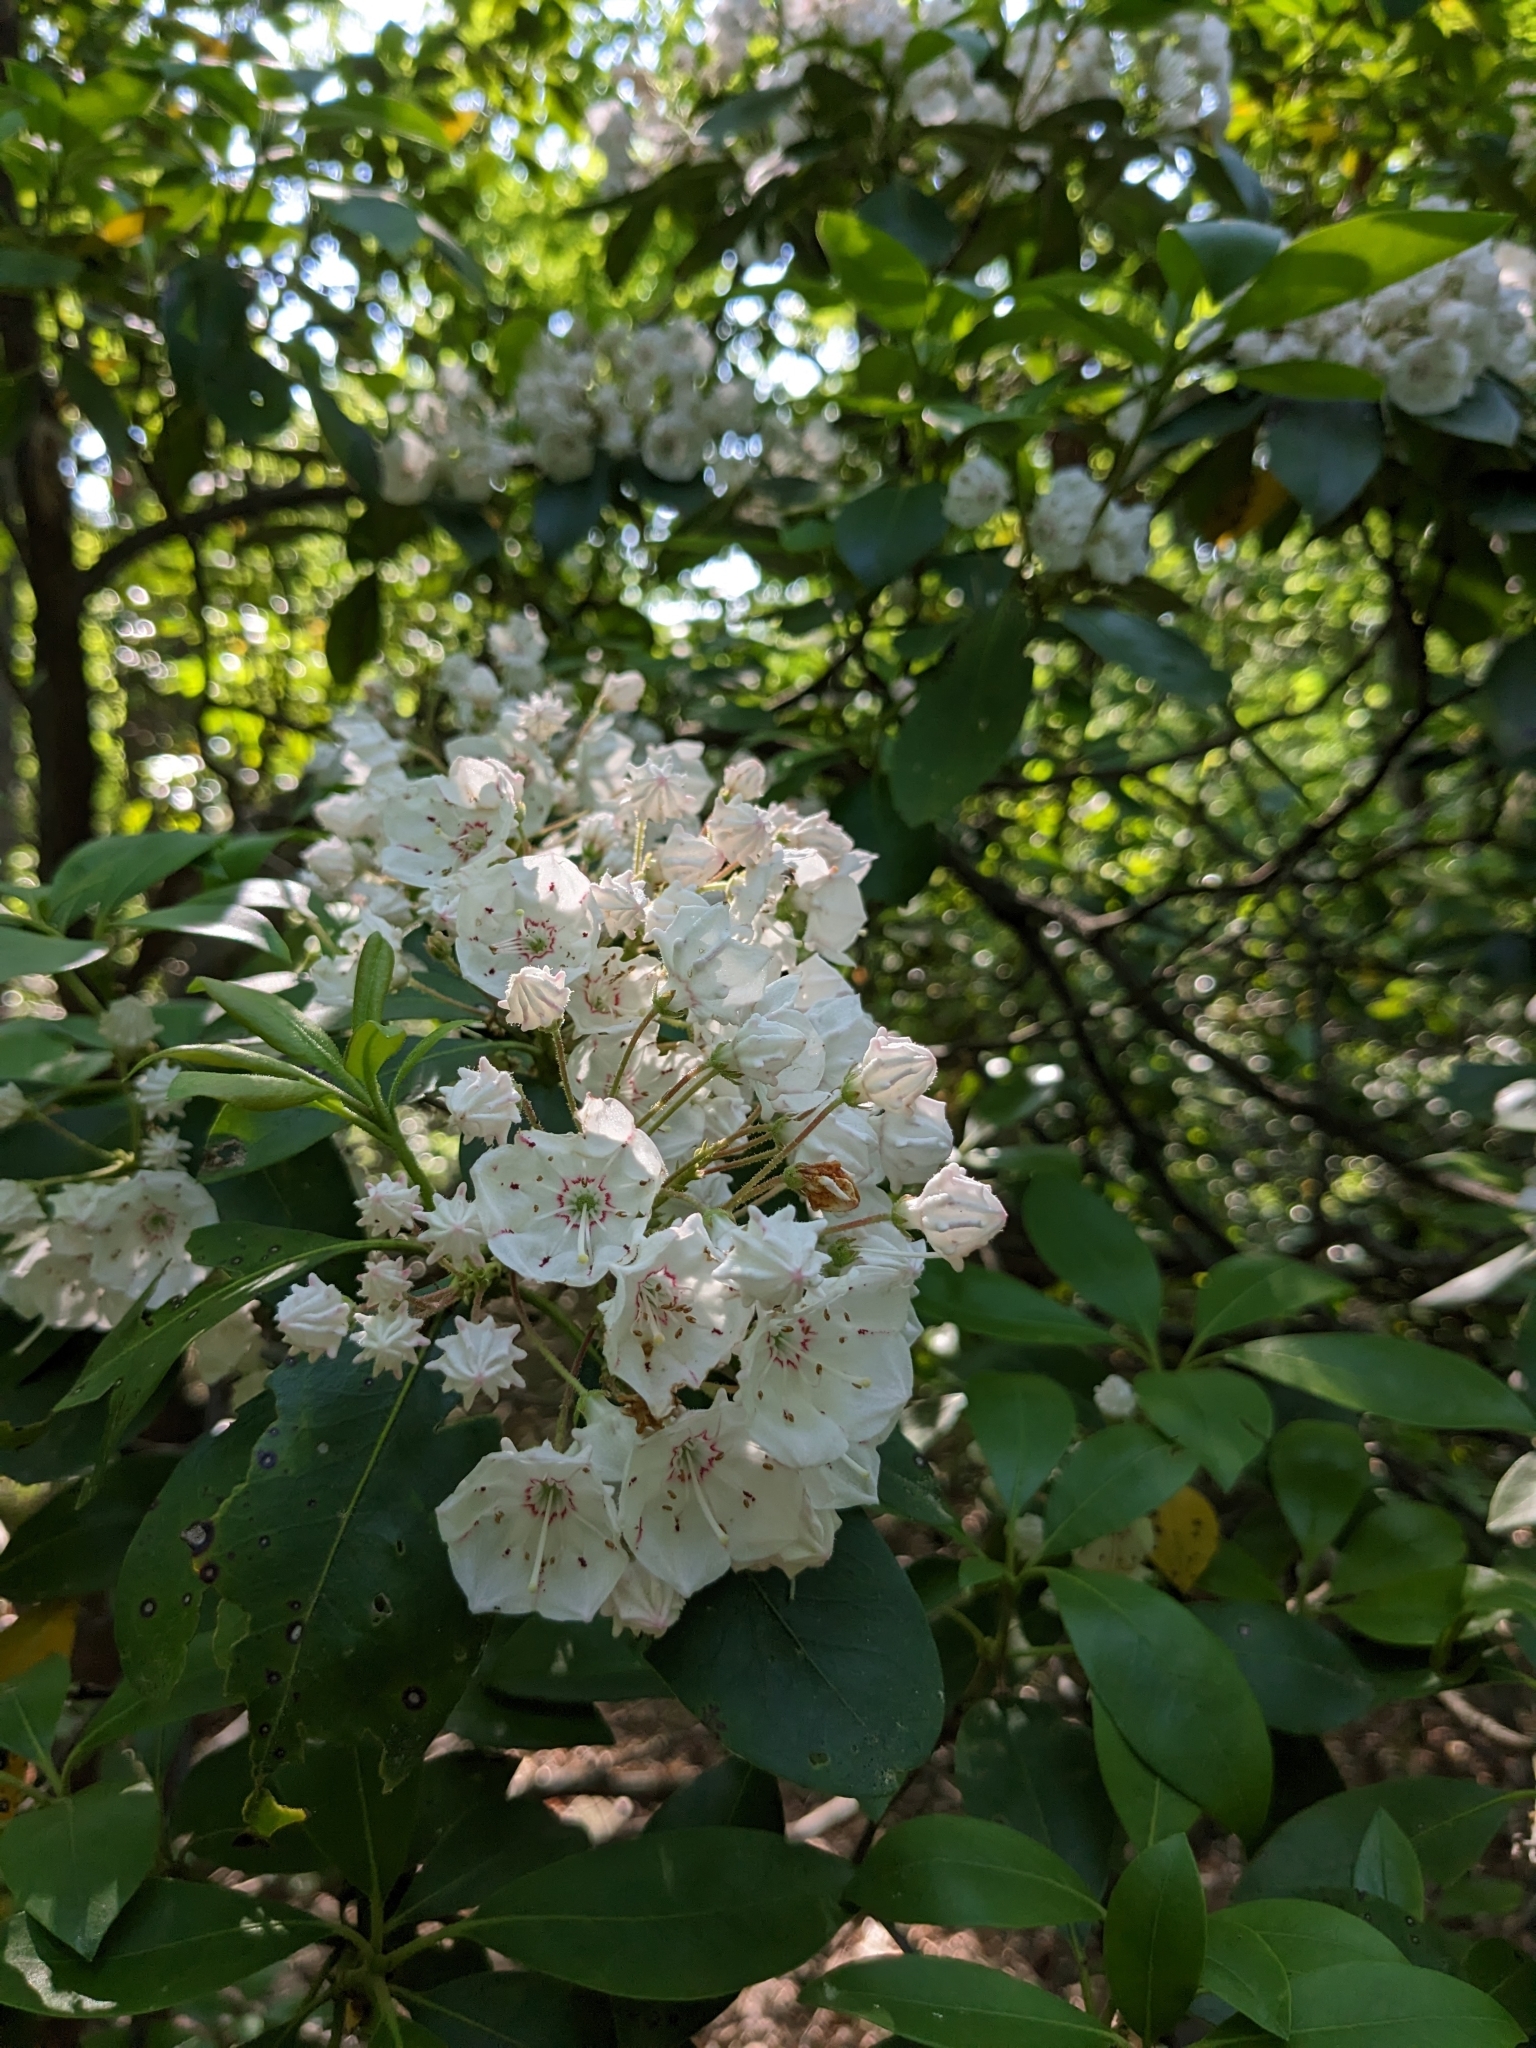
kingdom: Plantae
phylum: Tracheophyta
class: Magnoliopsida
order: Ericales
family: Ericaceae
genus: Kalmia
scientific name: Kalmia latifolia
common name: Mountain-laurel
